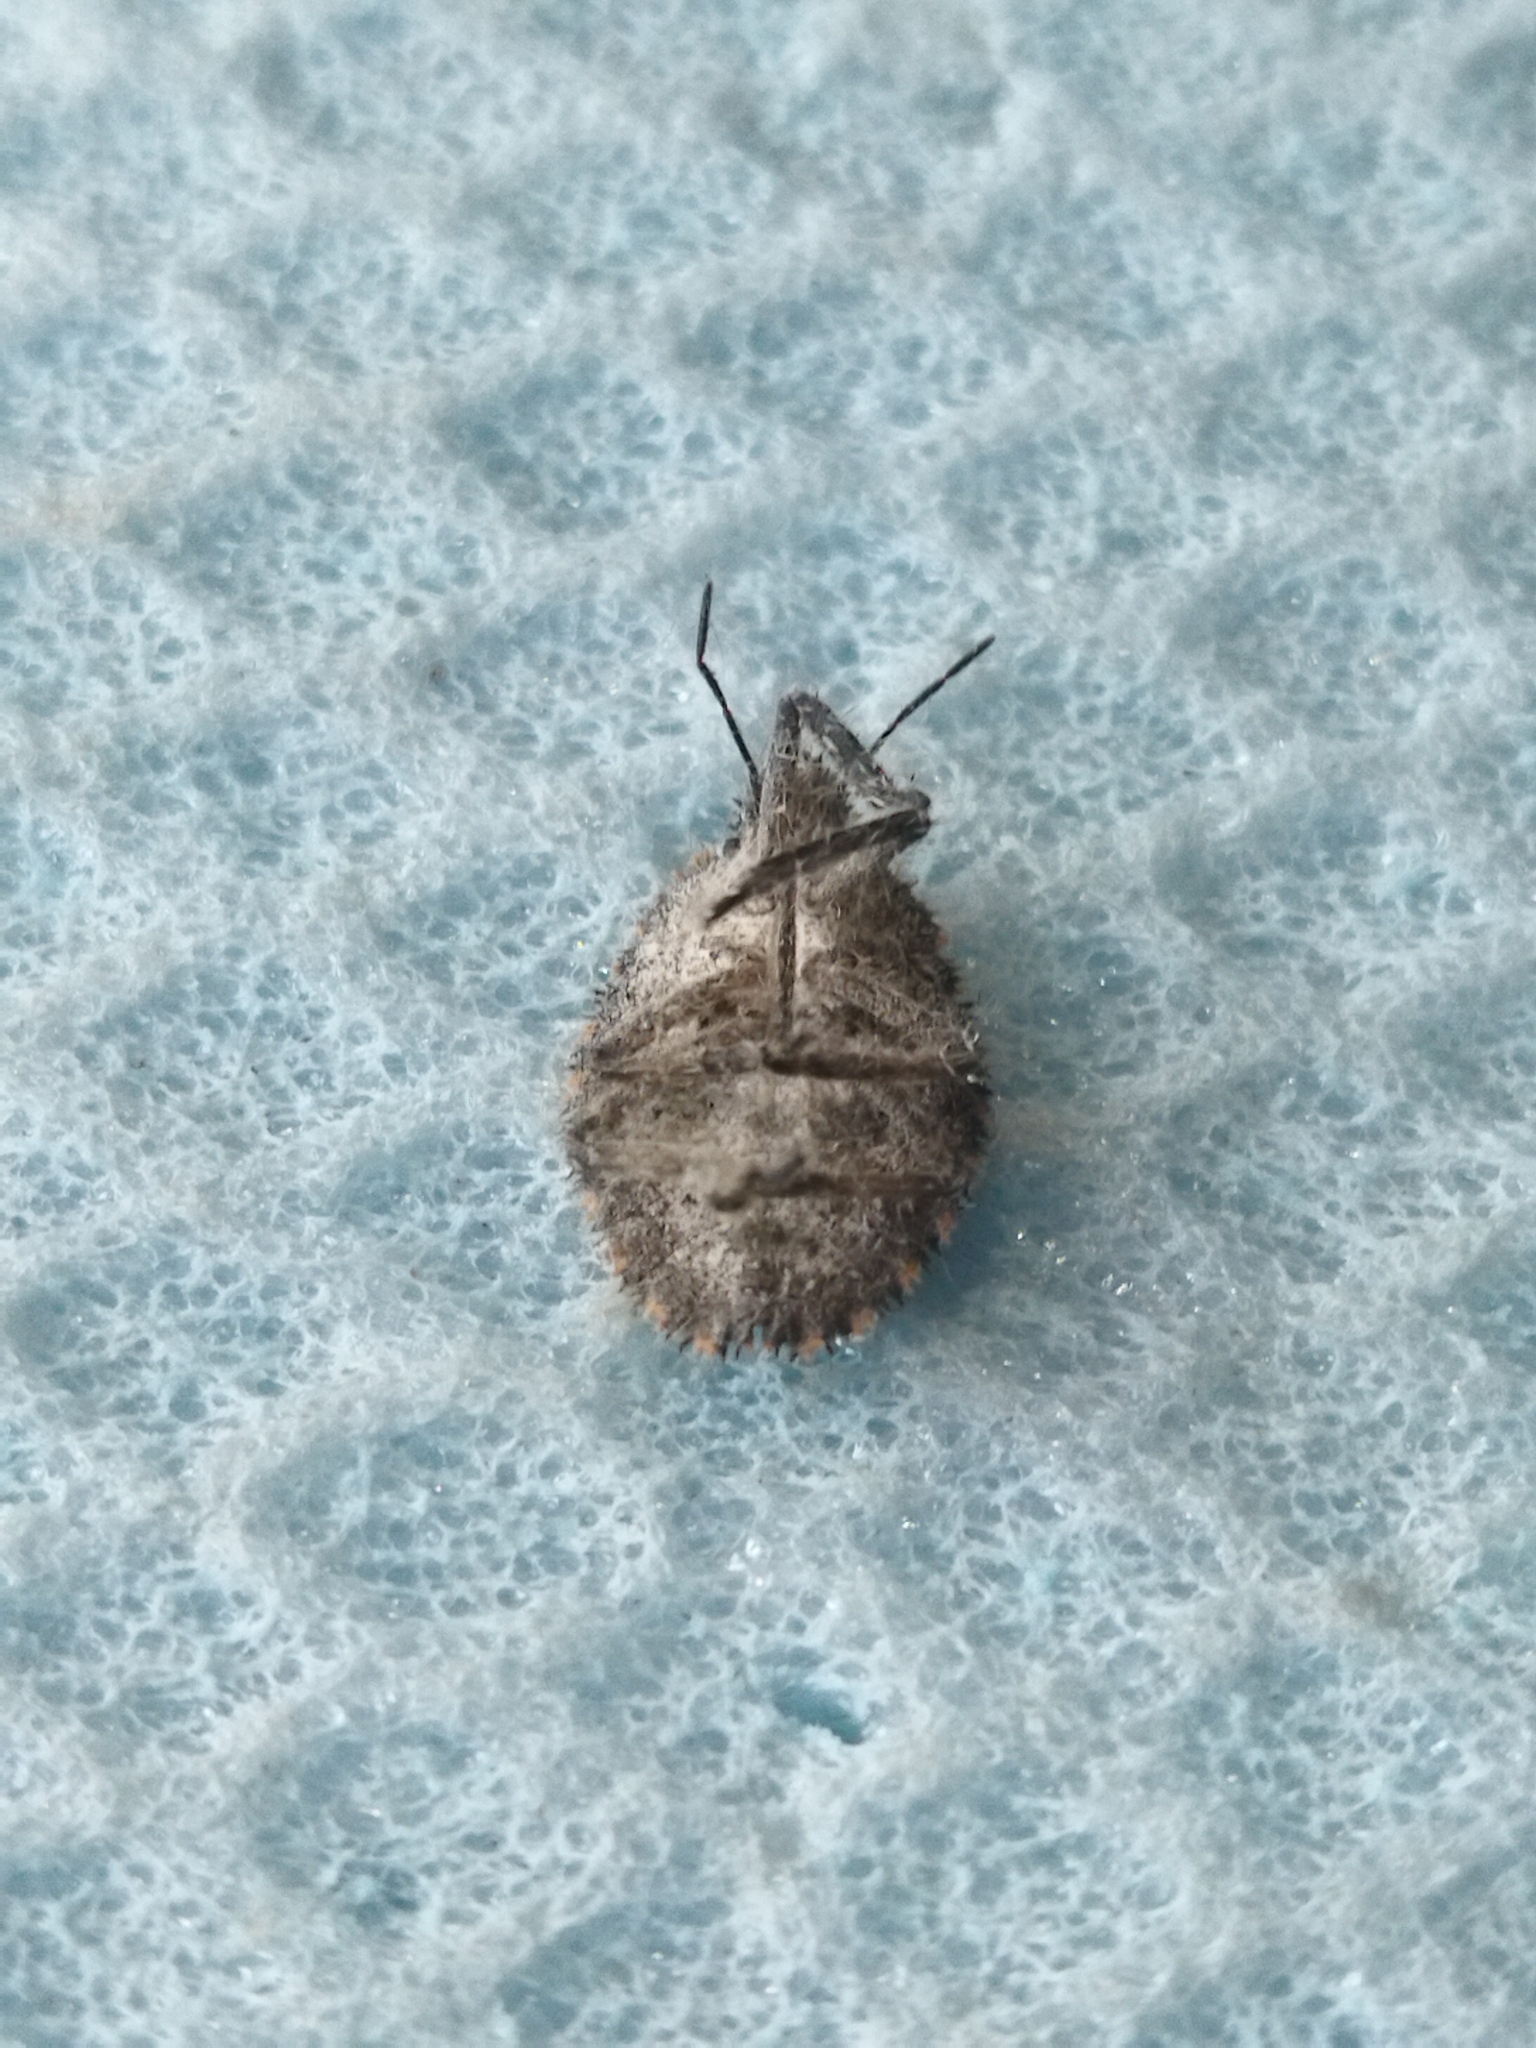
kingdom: Animalia
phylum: Arthropoda
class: Insecta
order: Hemiptera
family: Pentatomidae
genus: Mustha
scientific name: Mustha spinosula
